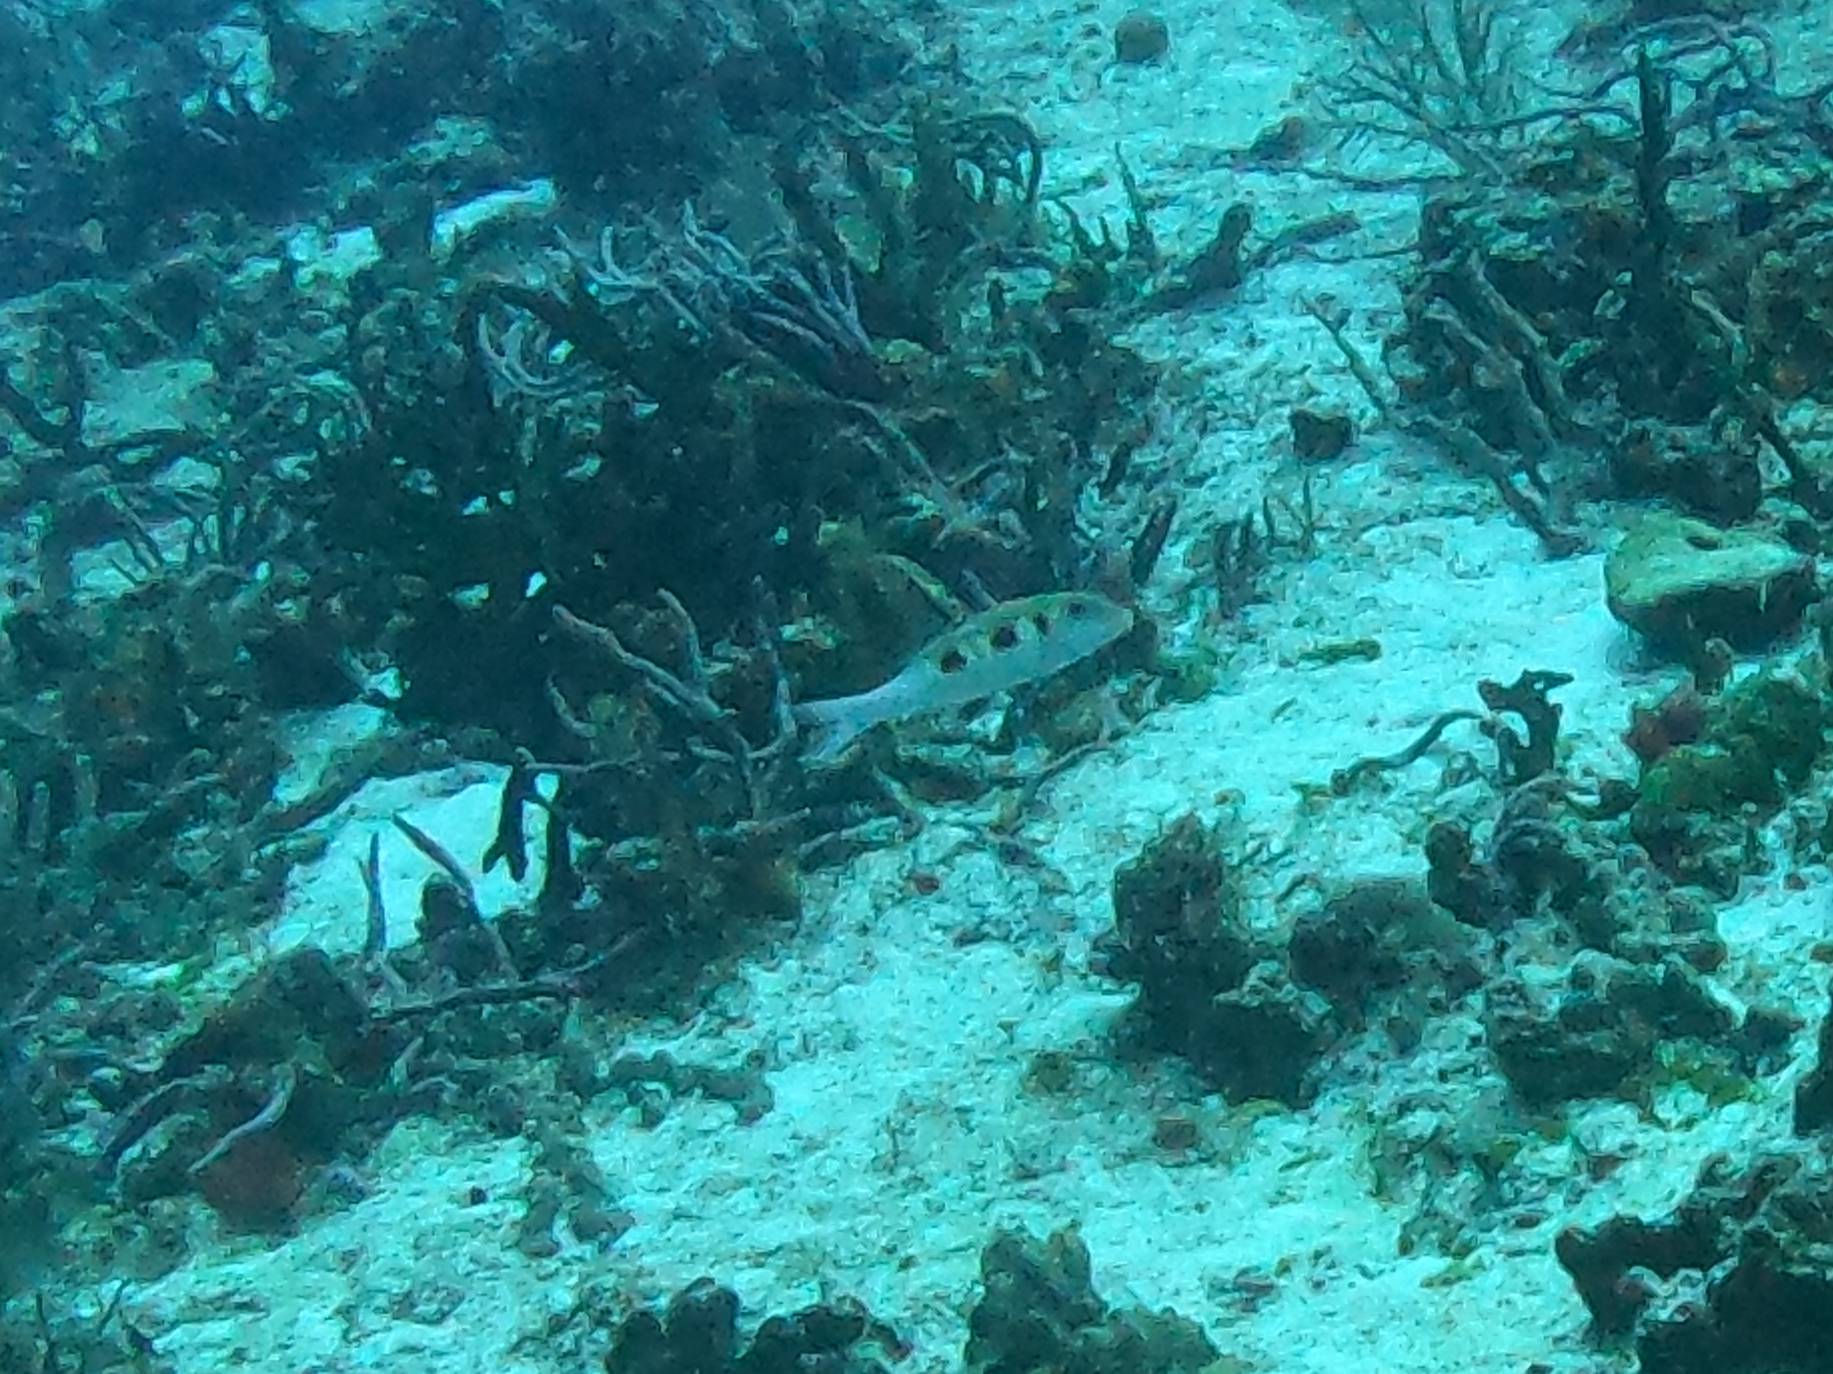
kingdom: Animalia
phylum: Chordata
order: Perciformes
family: Mullidae
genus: Pseudupeneus
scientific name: Pseudupeneus maculatus
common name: Spotted goatfish
